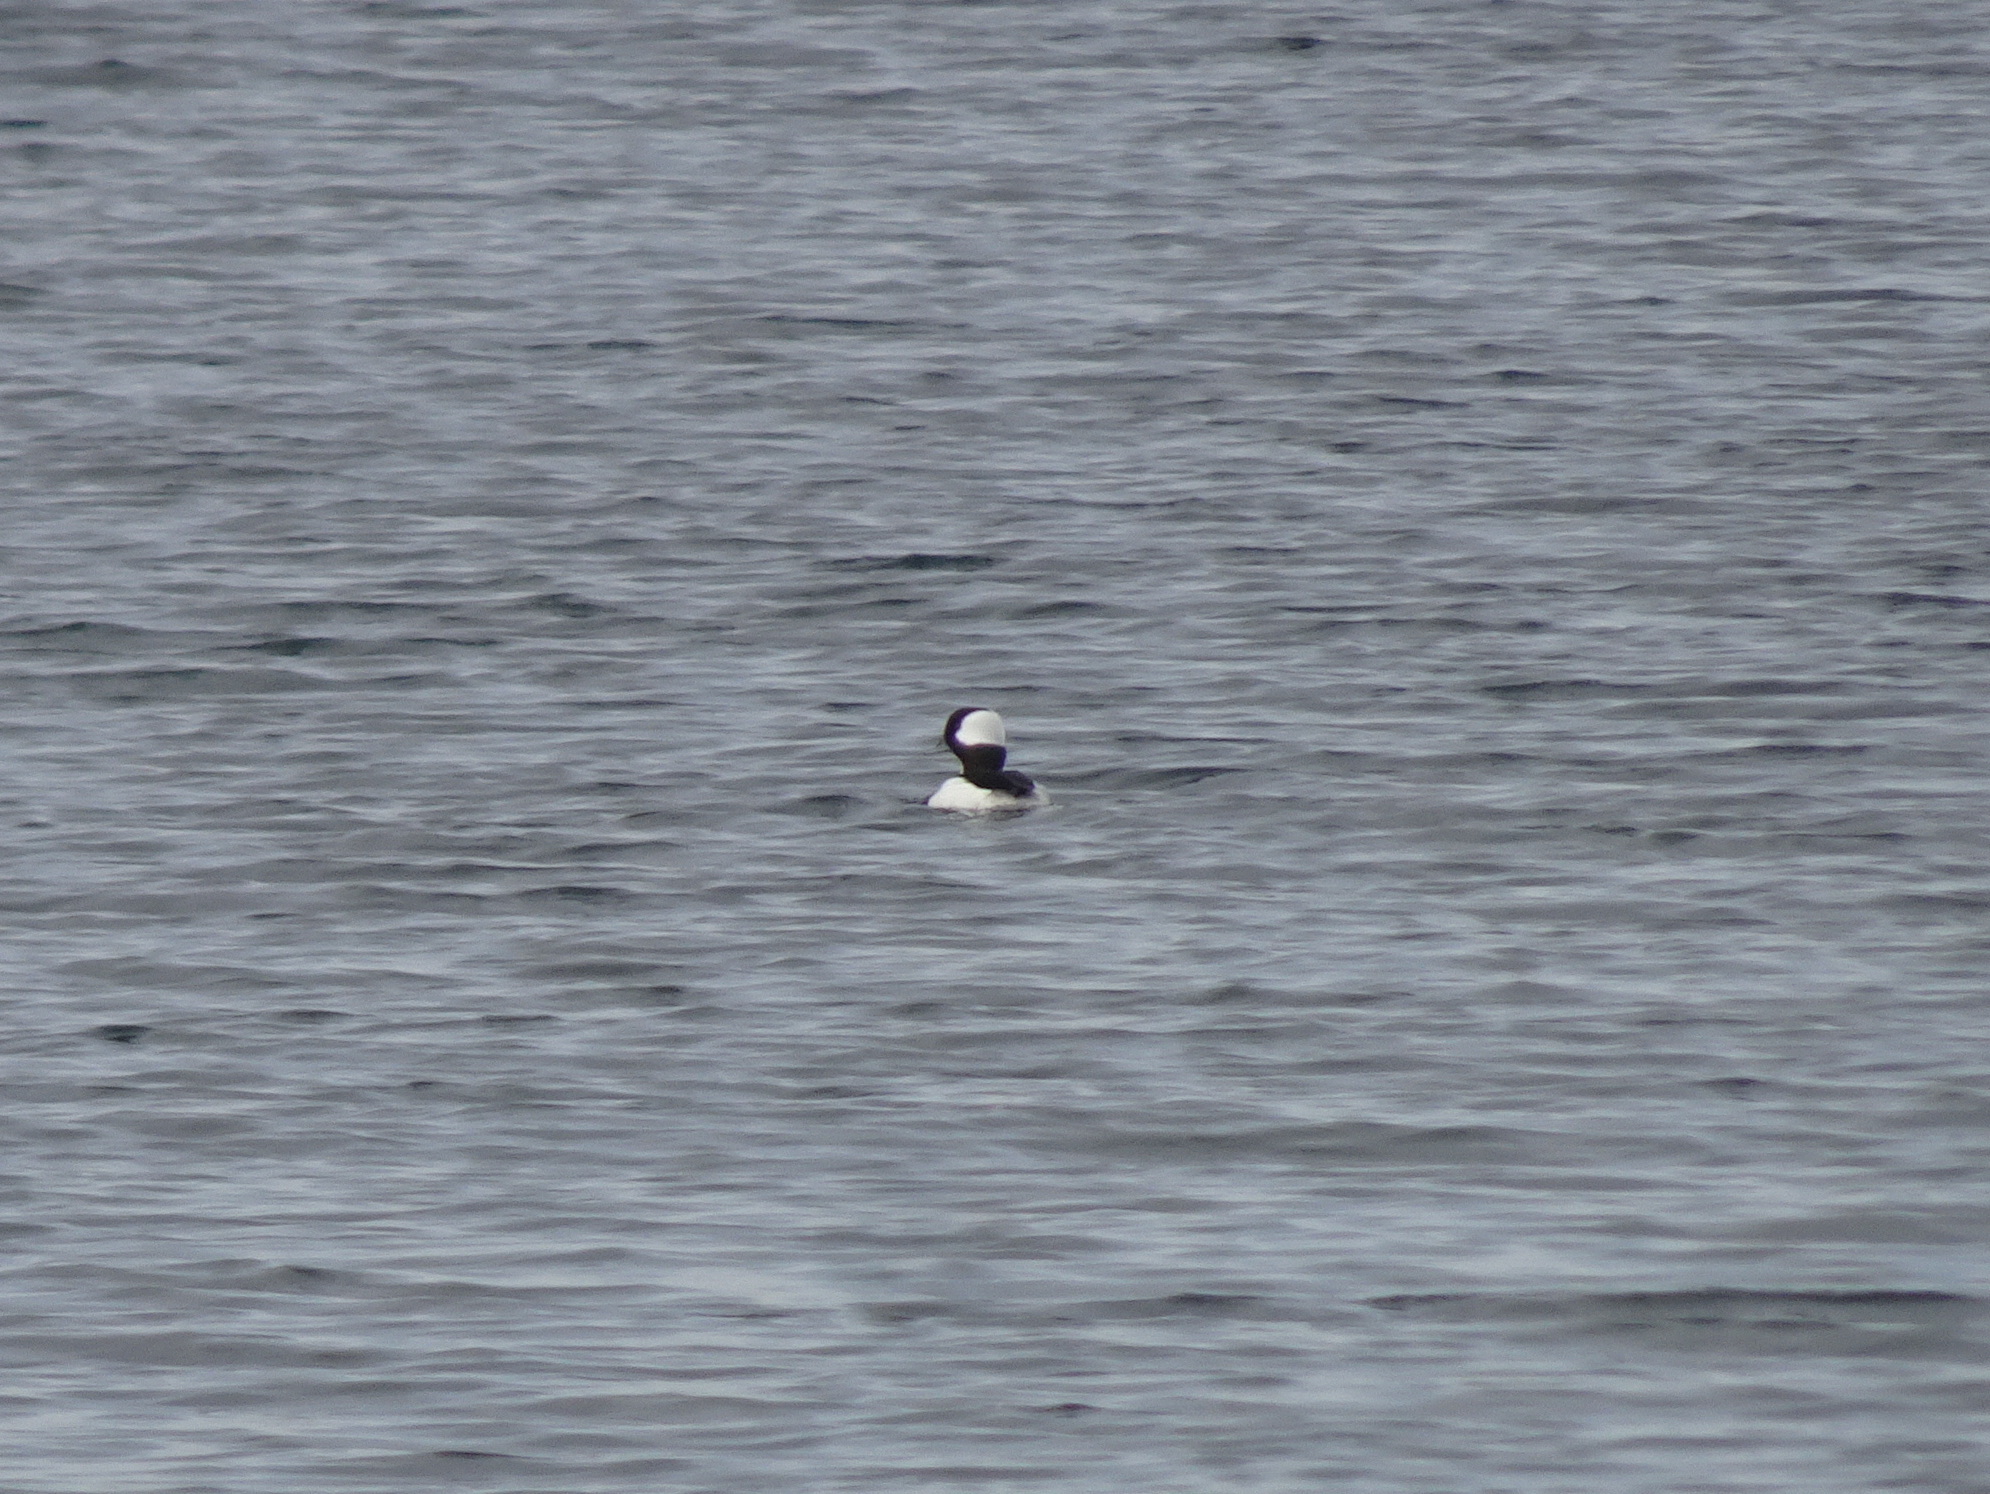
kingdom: Animalia
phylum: Chordata
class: Aves
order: Anseriformes
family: Anatidae
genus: Bucephala
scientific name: Bucephala albeola
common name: Bufflehead
